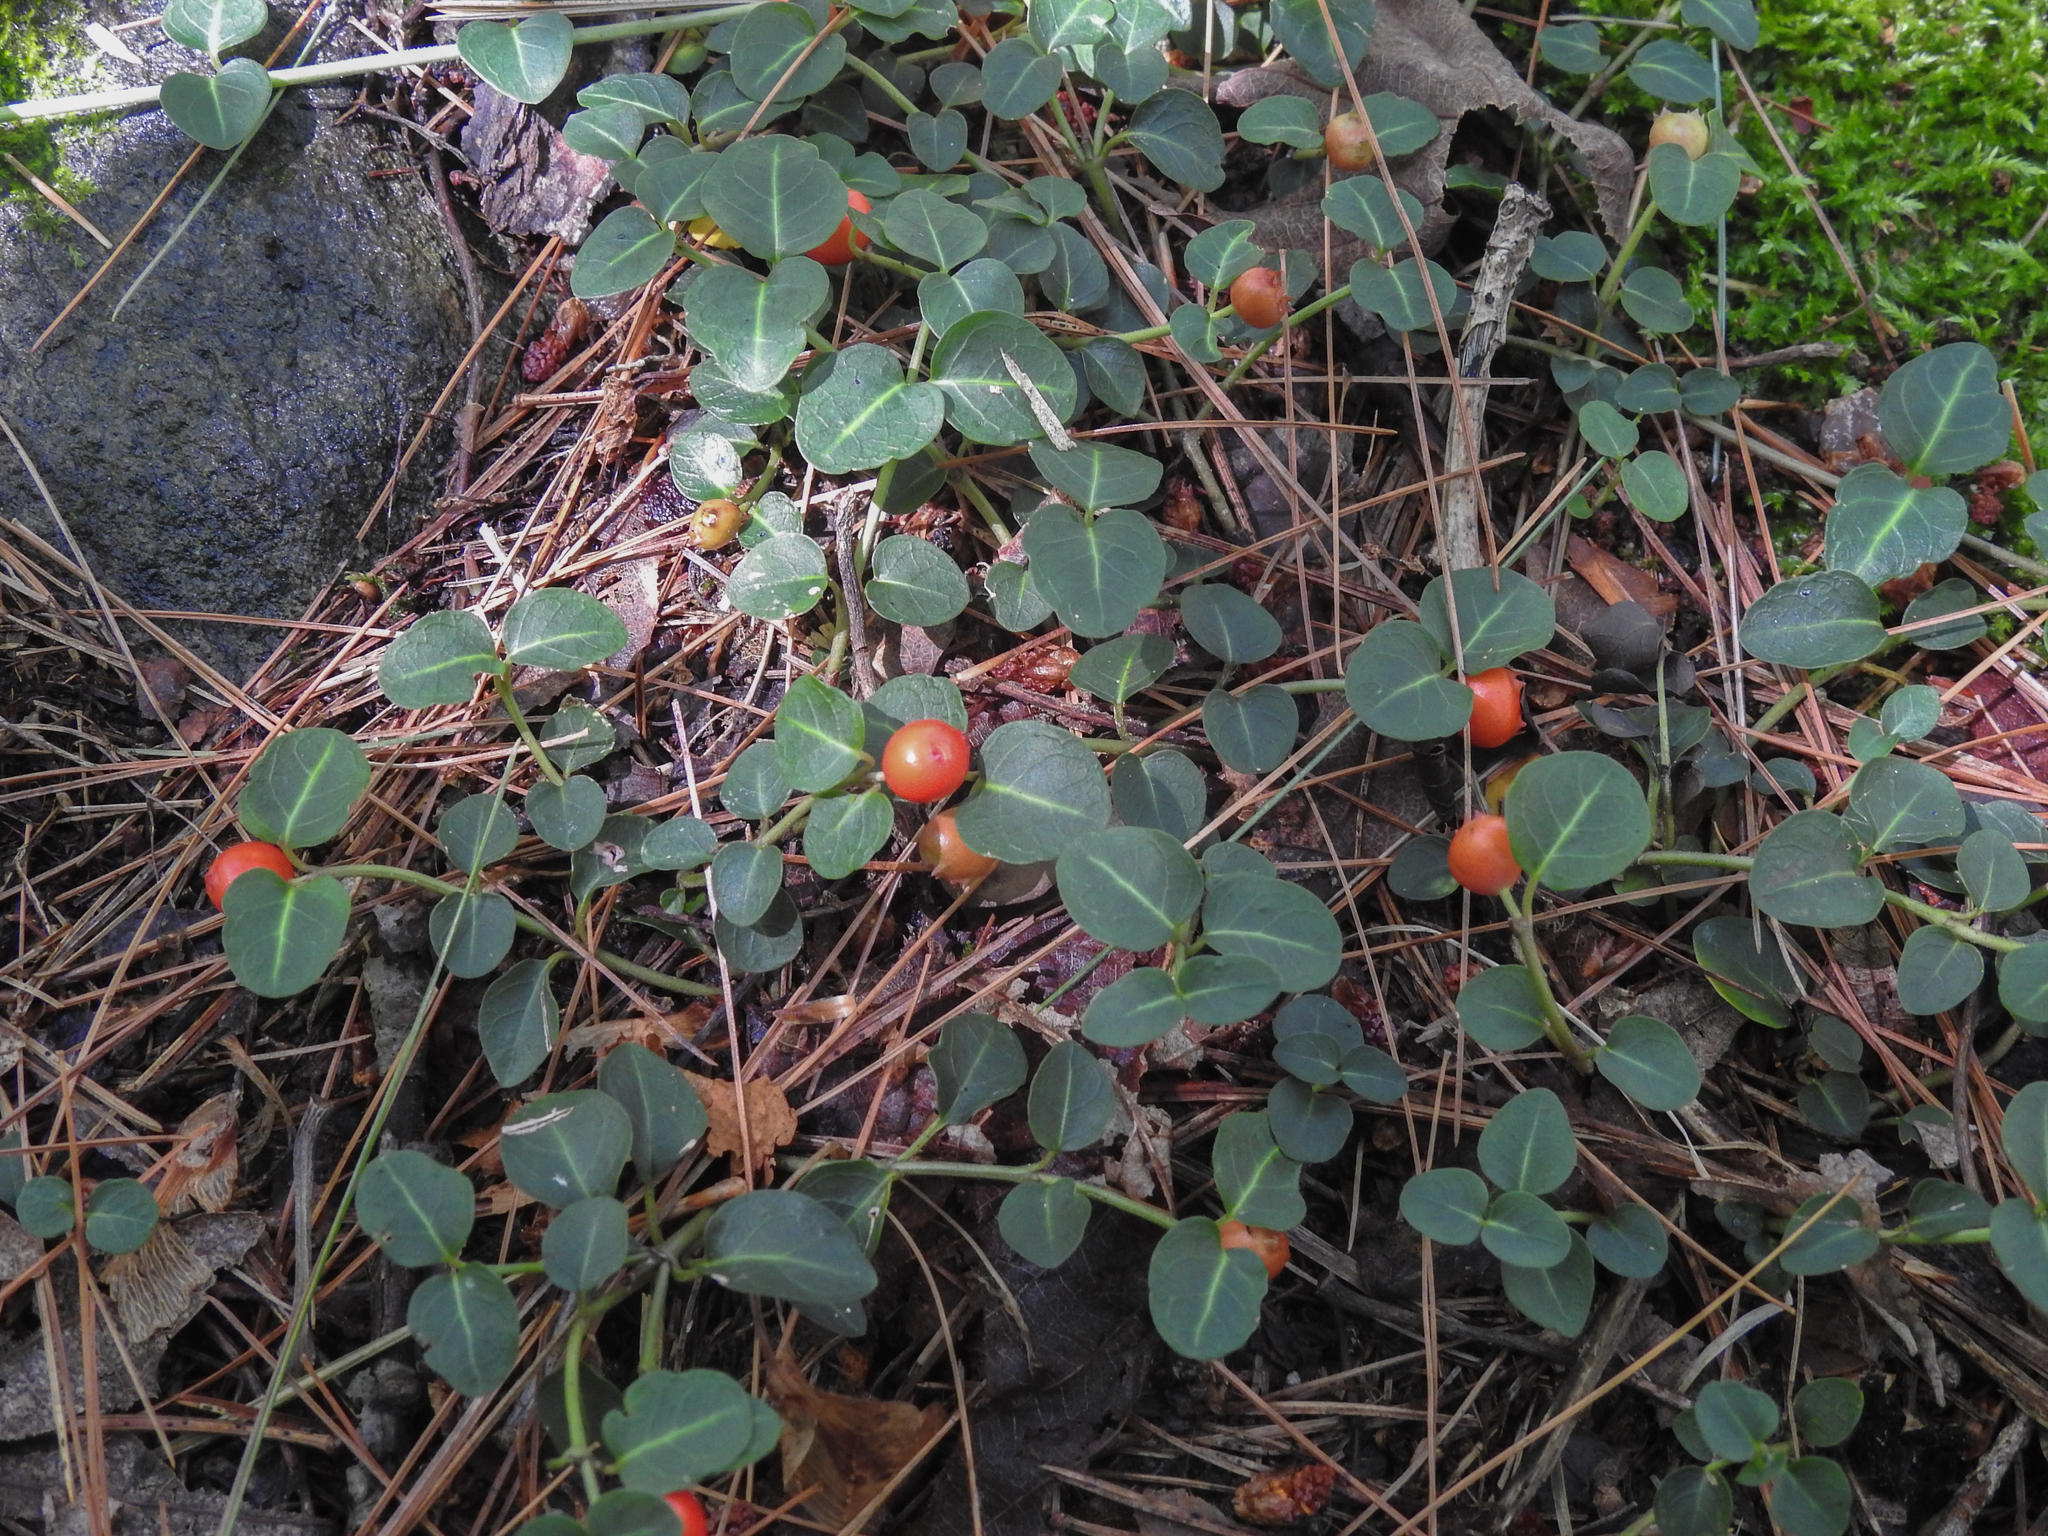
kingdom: Plantae
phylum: Tracheophyta
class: Magnoliopsida
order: Gentianales
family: Rubiaceae
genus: Mitchella
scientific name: Mitchella repens
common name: Partridge-berry
